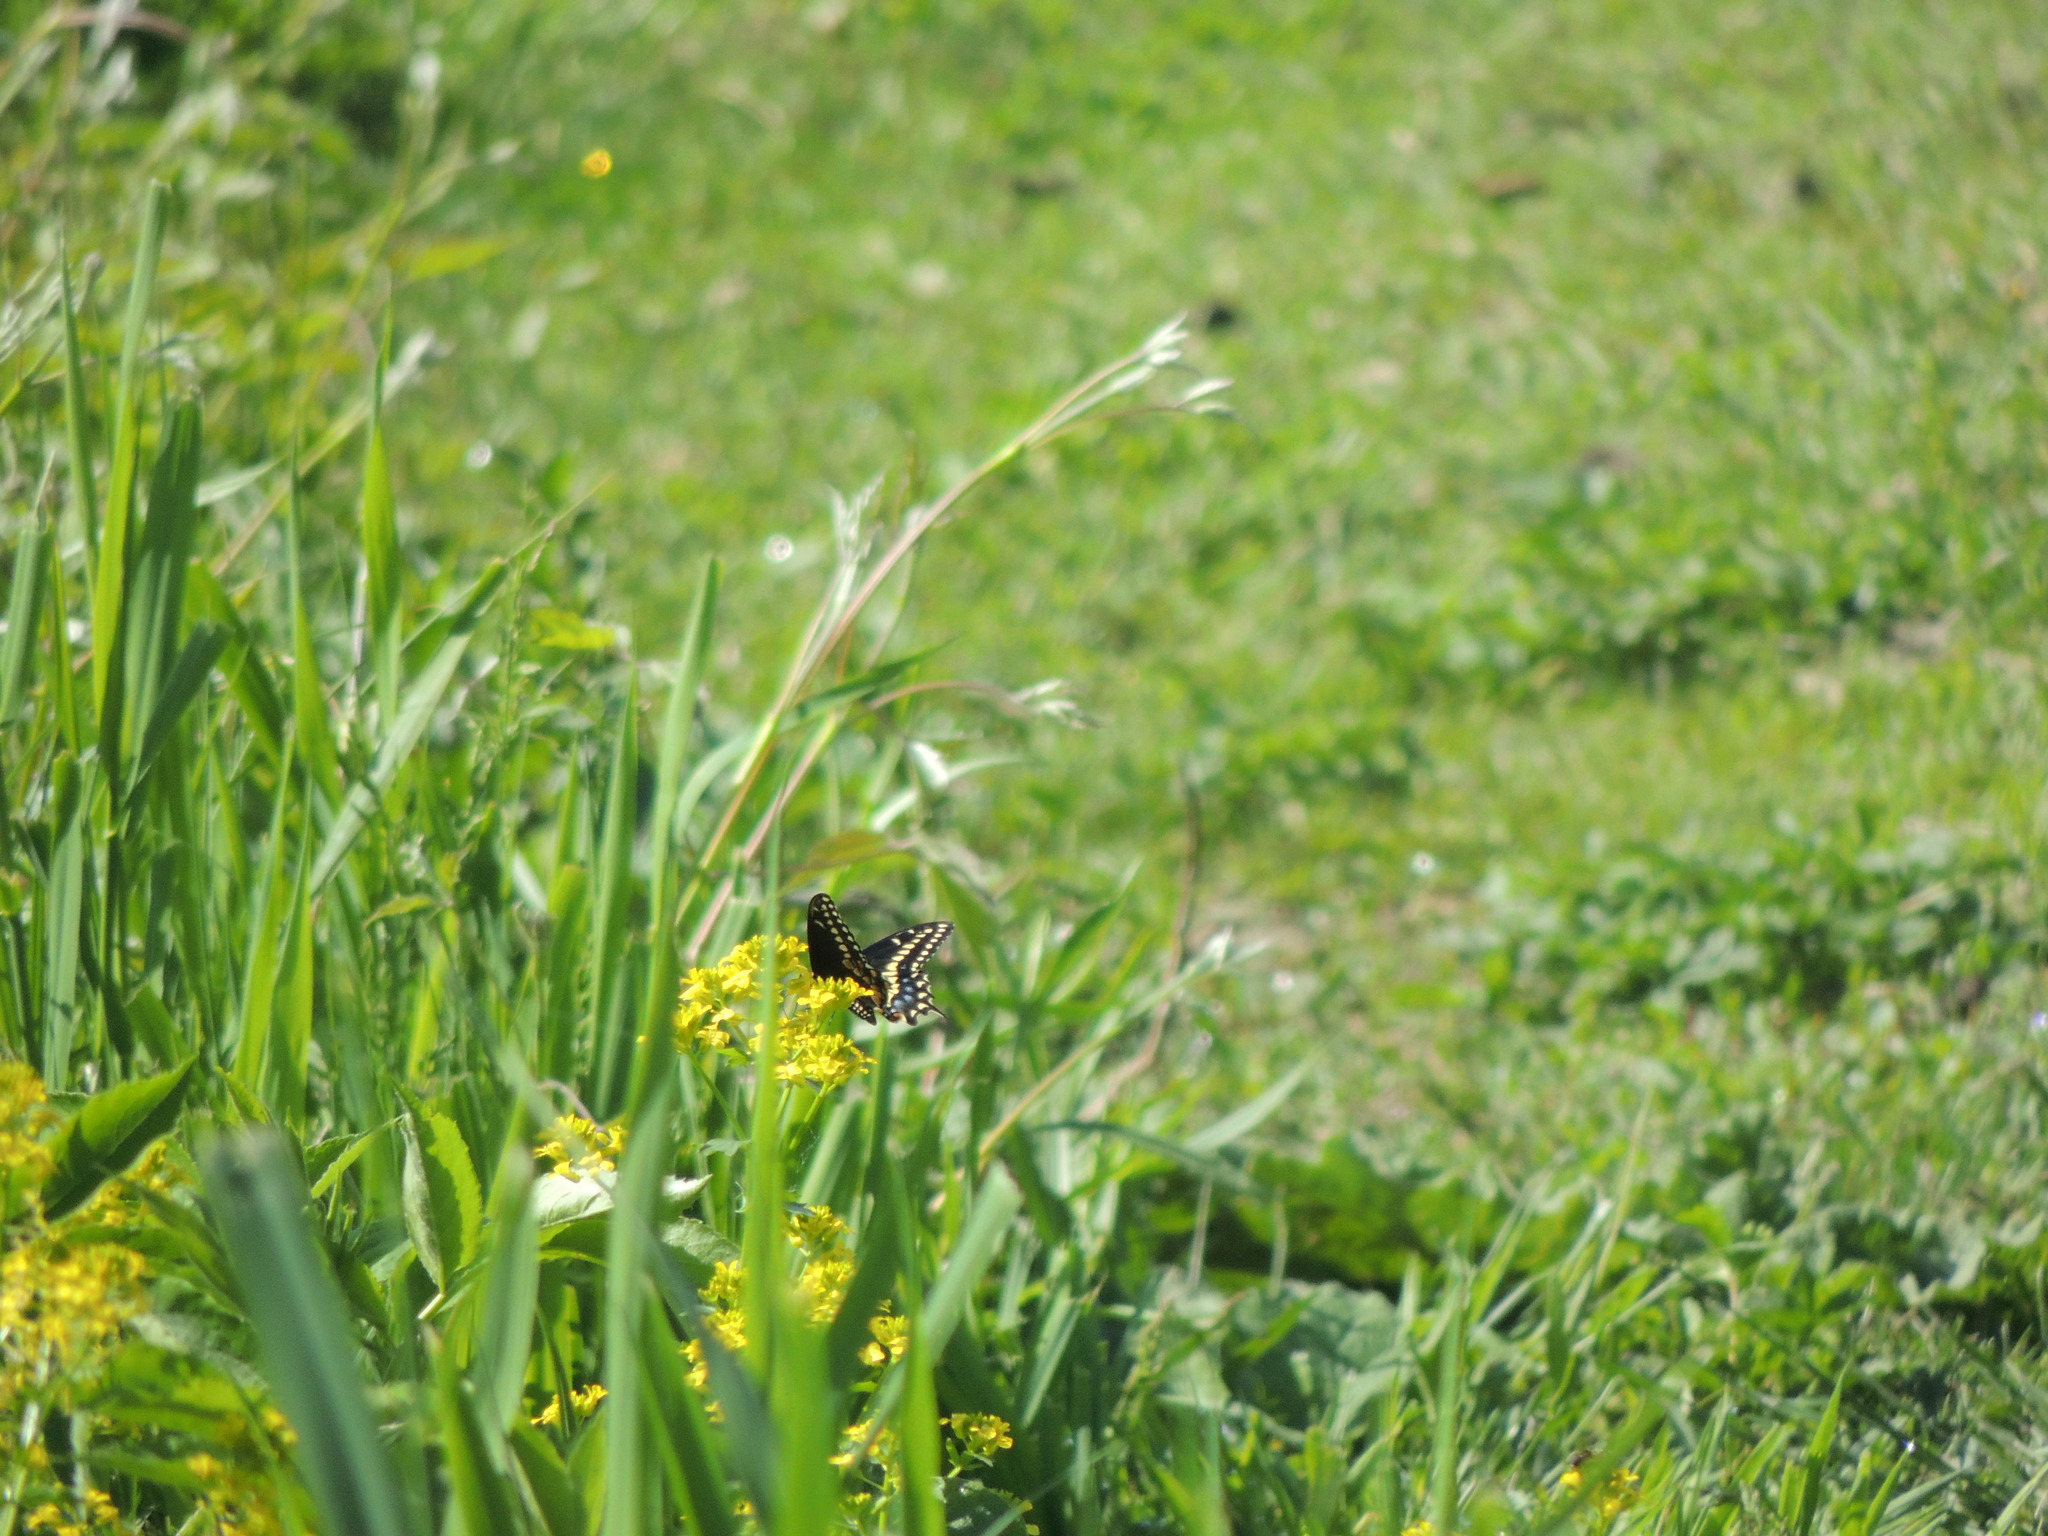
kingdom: Animalia
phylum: Arthropoda
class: Insecta
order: Lepidoptera
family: Papilionidae
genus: Papilio
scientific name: Papilio polyxenes
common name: Black swallowtail
